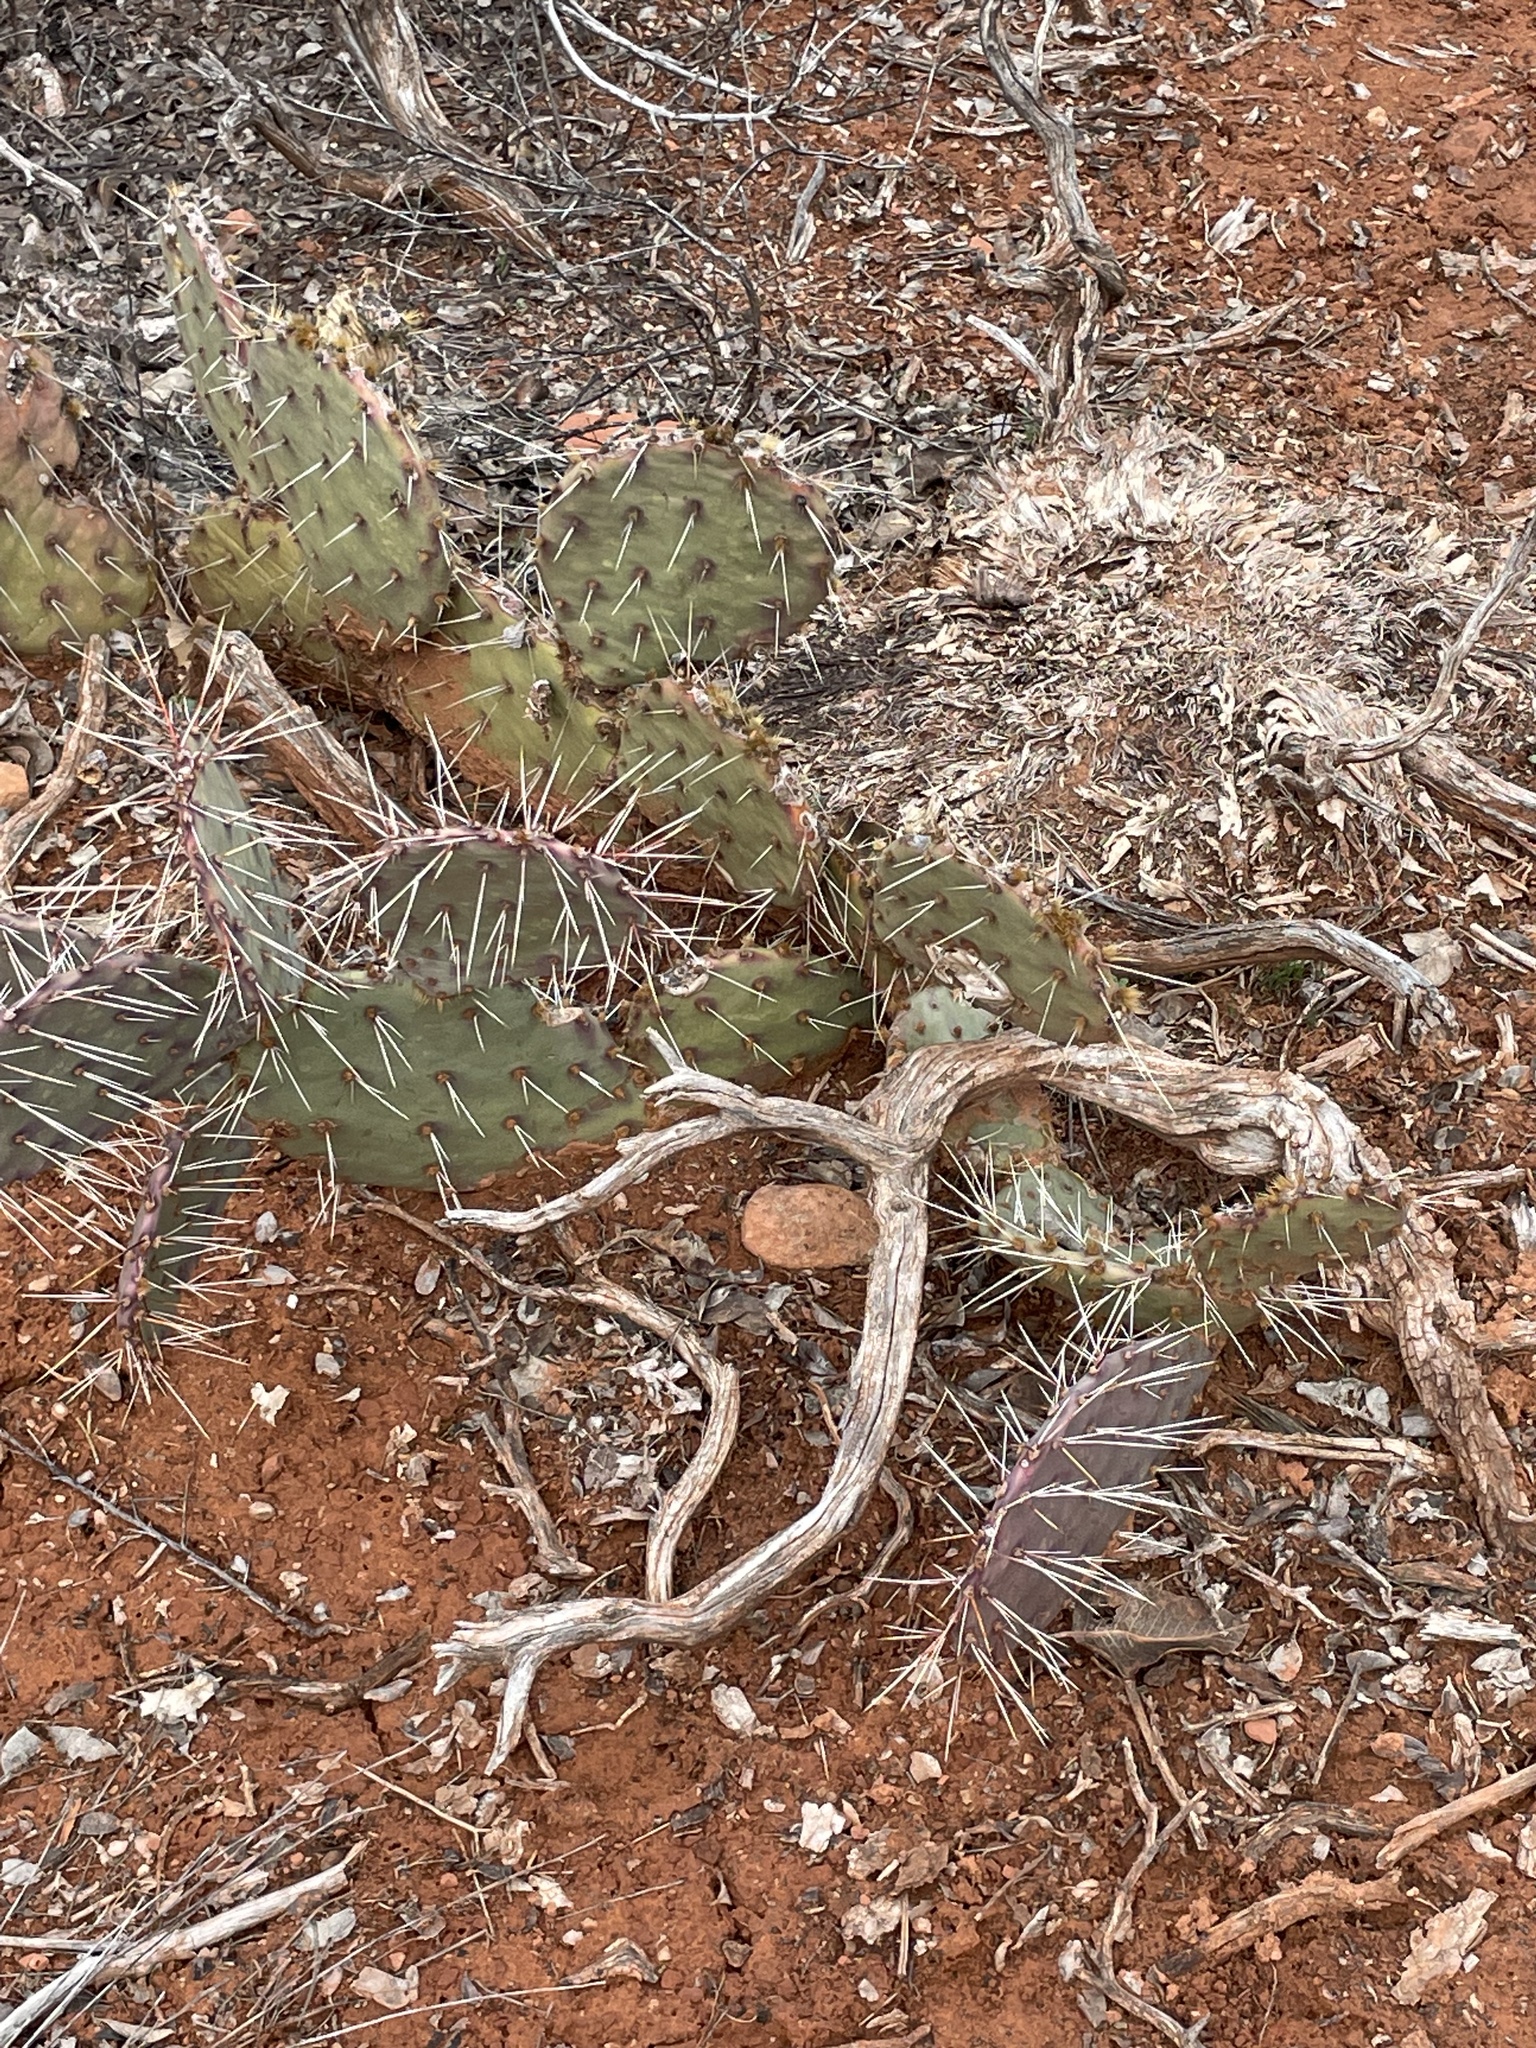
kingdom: Plantae
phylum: Tracheophyta
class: Magnoliopsida
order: Caryophyllales
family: Cactaceae
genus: Opuntia
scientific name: Opuntia phaeacantha
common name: New mexico prickly-pear
